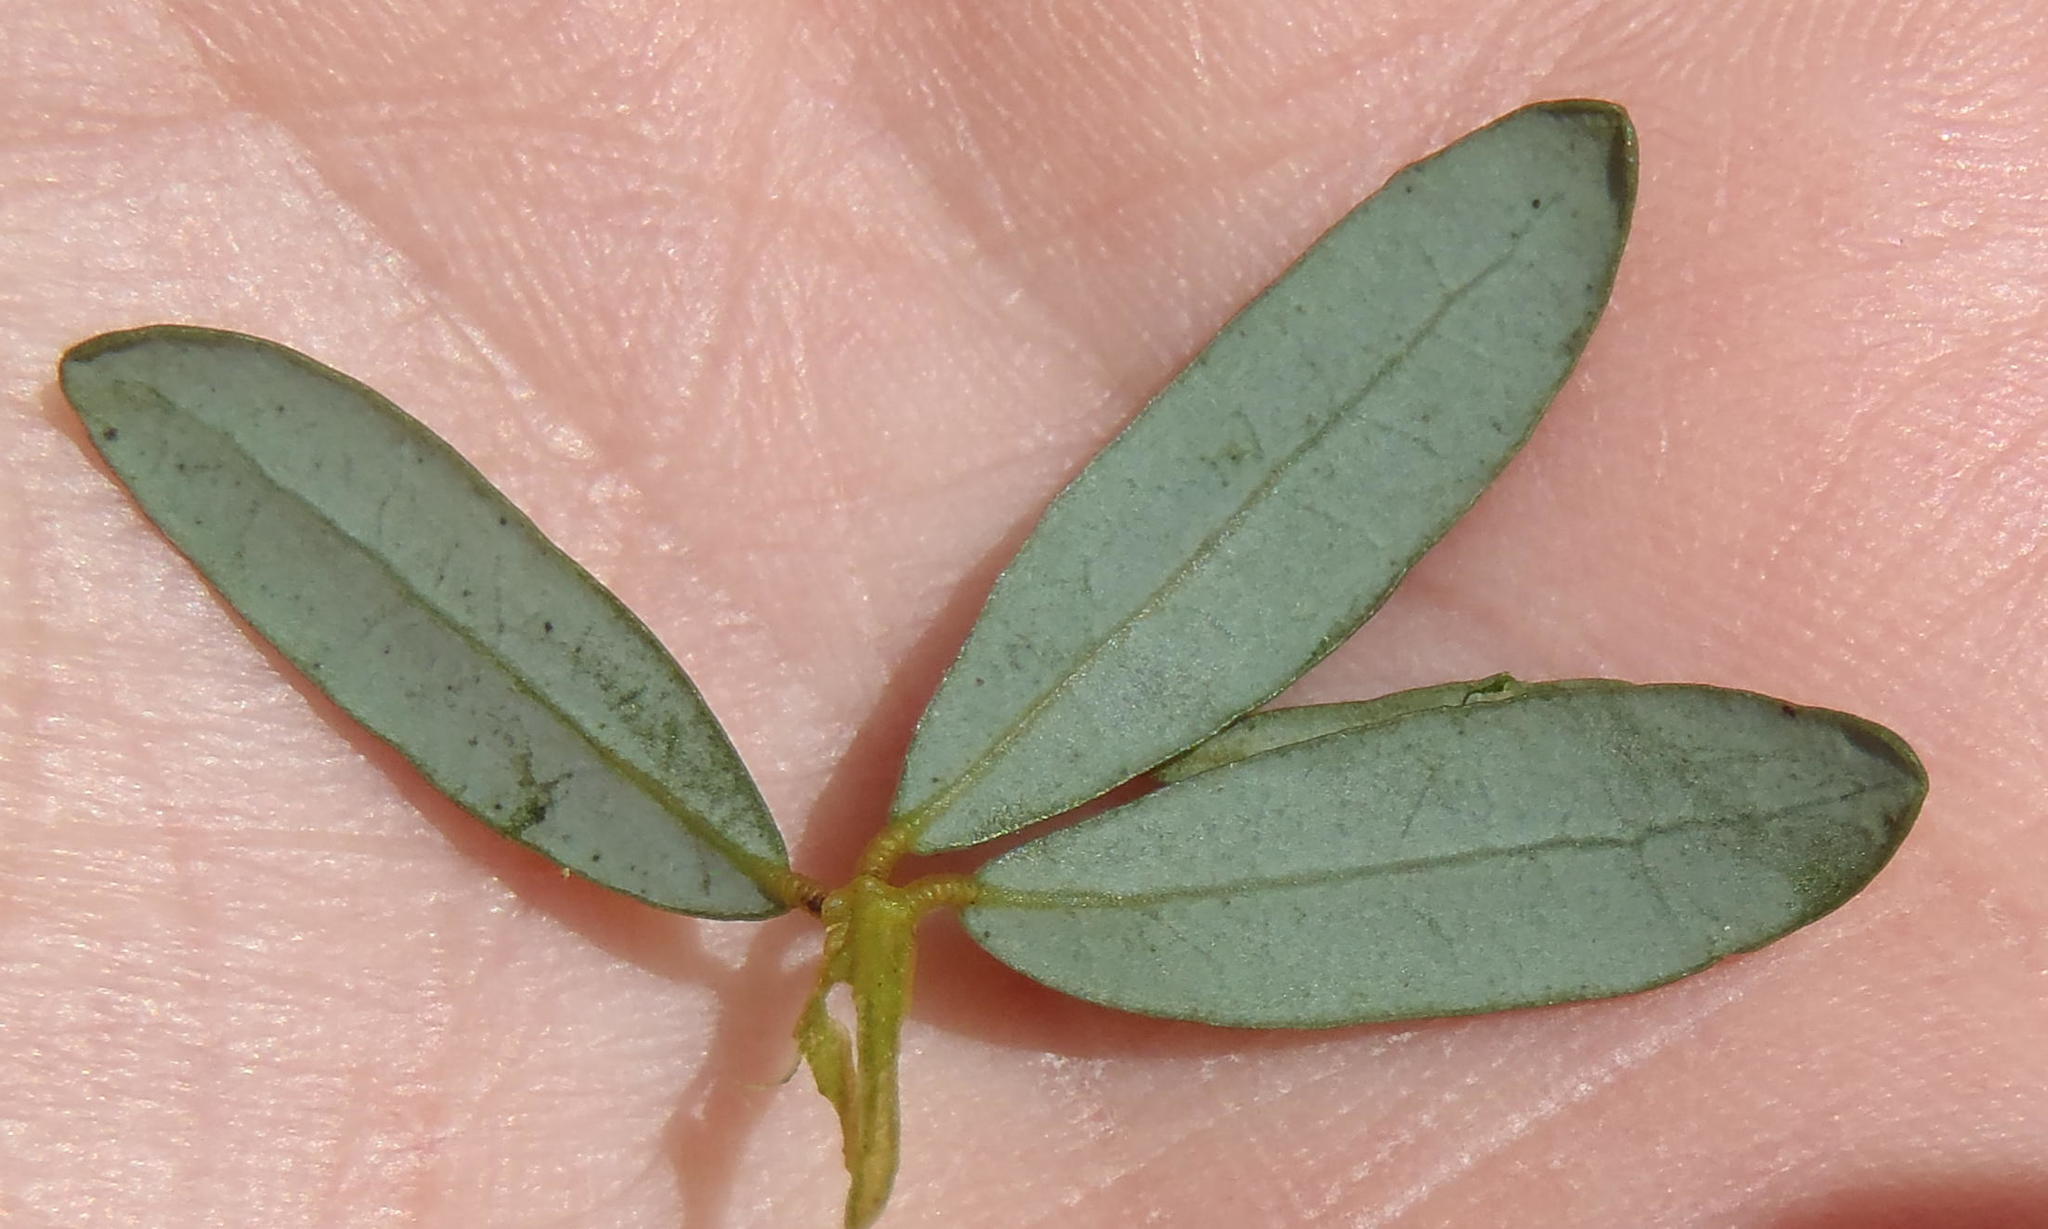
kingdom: Plantae
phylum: Tracheophyta
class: Magnoliopsida
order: Fabales
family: Fabaceae
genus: Cyclopia
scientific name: Cyclopia subternata
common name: Honeybush tea
